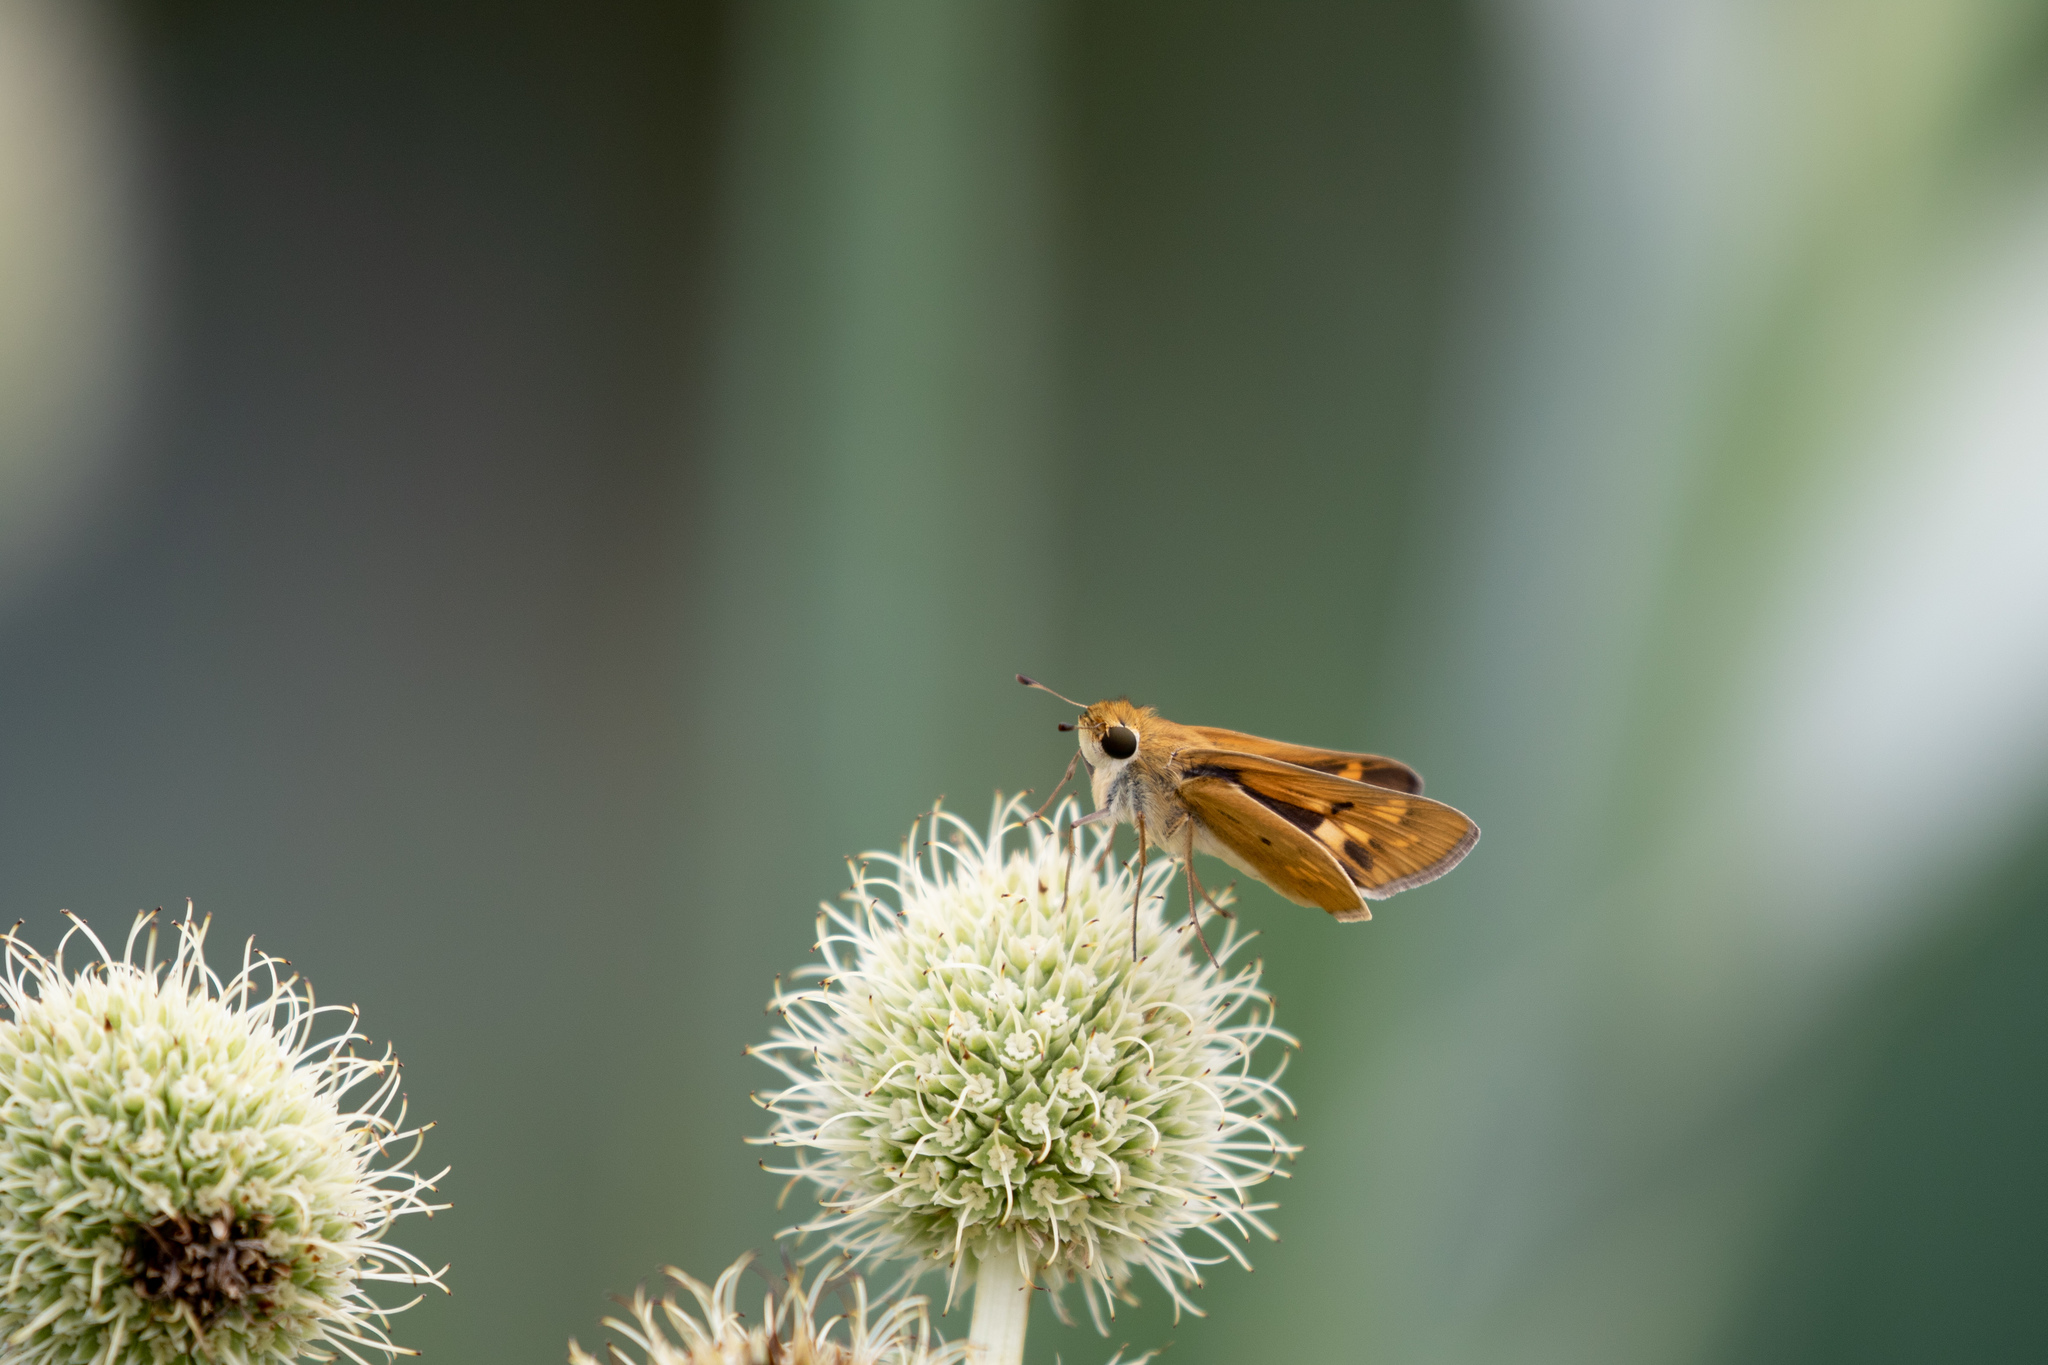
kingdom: Animalia
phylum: Arthropoda
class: Insecta
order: Lepidoptera
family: Hesperiidae
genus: Hylephila
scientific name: Hylephila phyleus
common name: Fiery skipper
